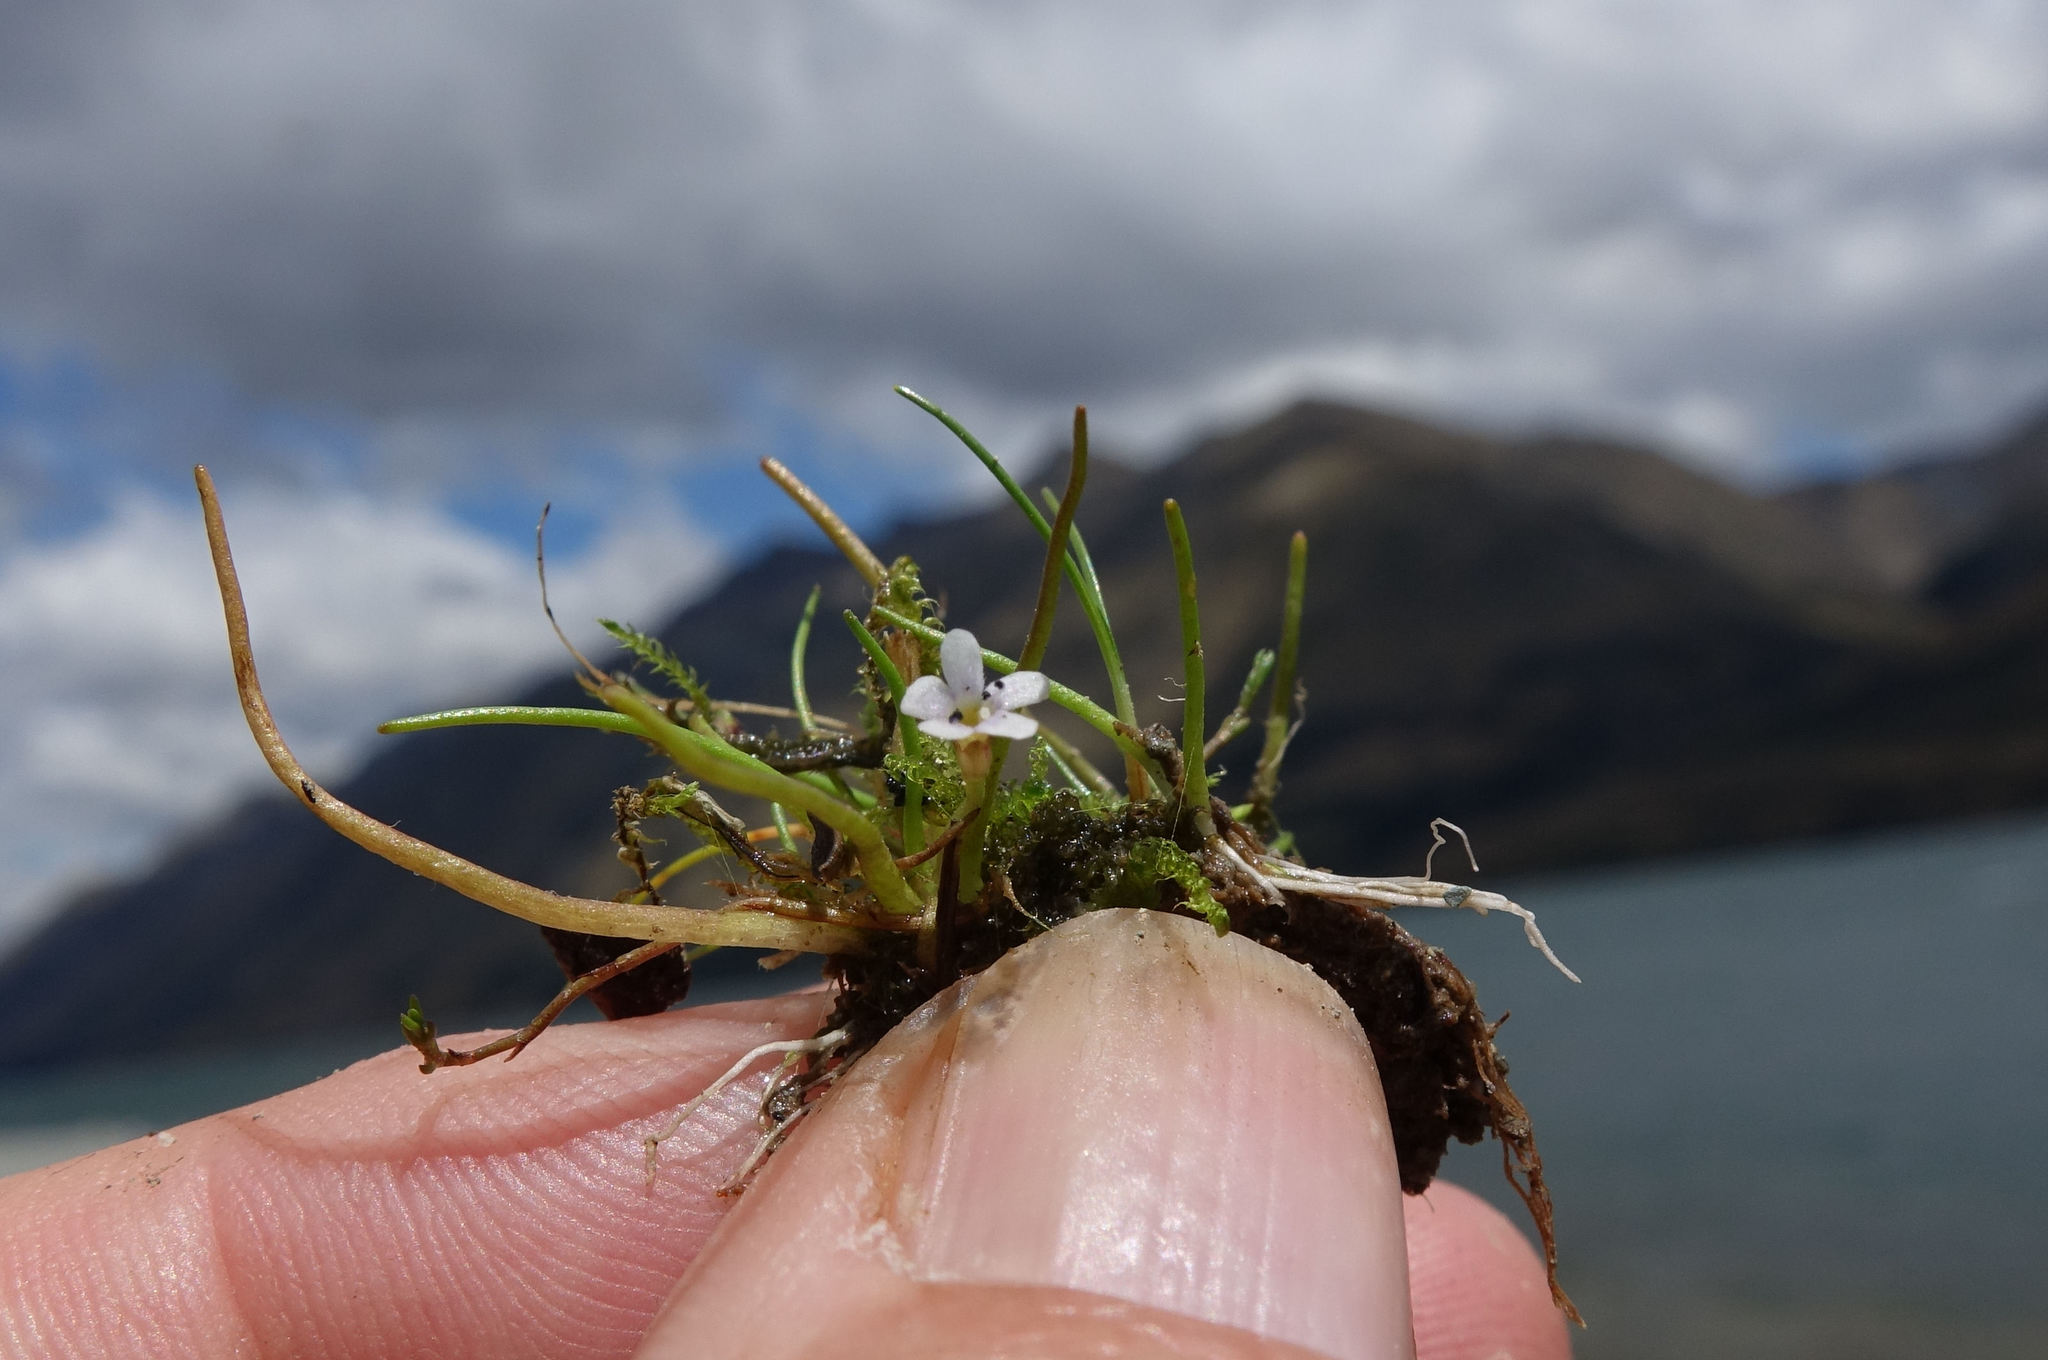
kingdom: Plantae
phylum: Tracheophyta
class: Magnoliopsida
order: Lamiales
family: Scrophulariaceae
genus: Limosella
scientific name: Limosella australis
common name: Welsh mudwort
